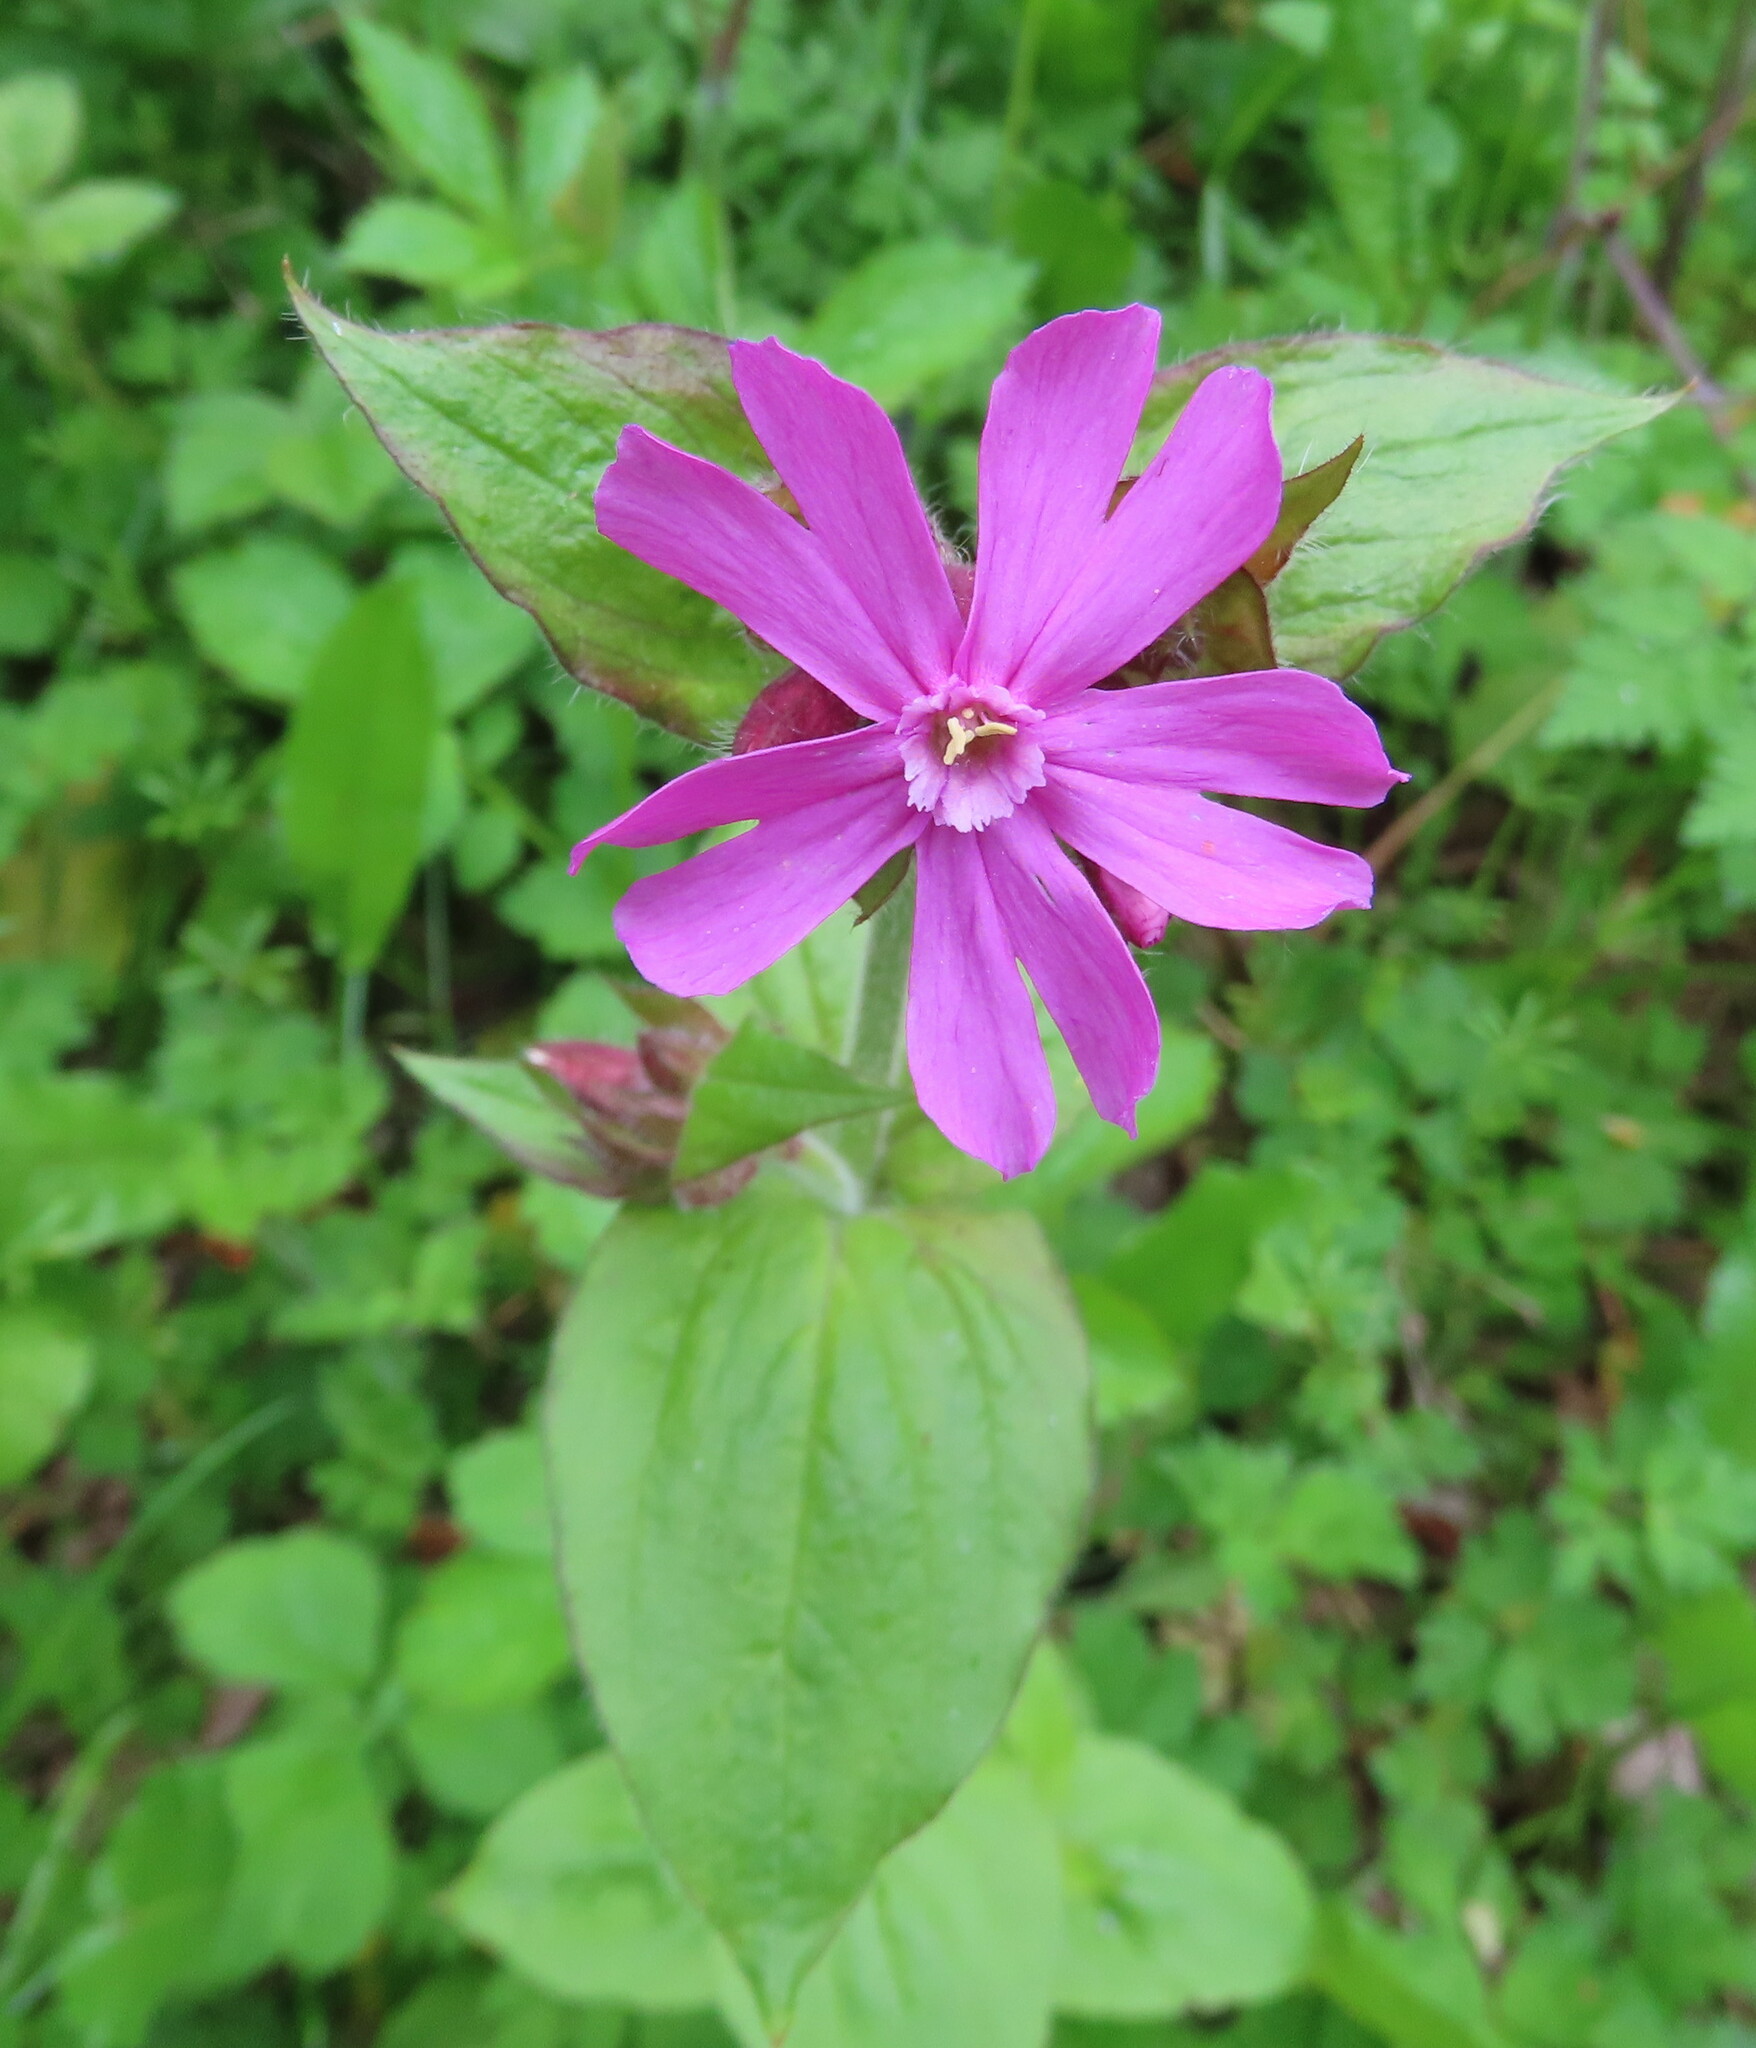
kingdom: Plantae
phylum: Tracheophyta
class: Magnoliopsida
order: Caryophyllales
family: Caryophyllaceae
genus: Silene
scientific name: Silene dioica
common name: Red campion
